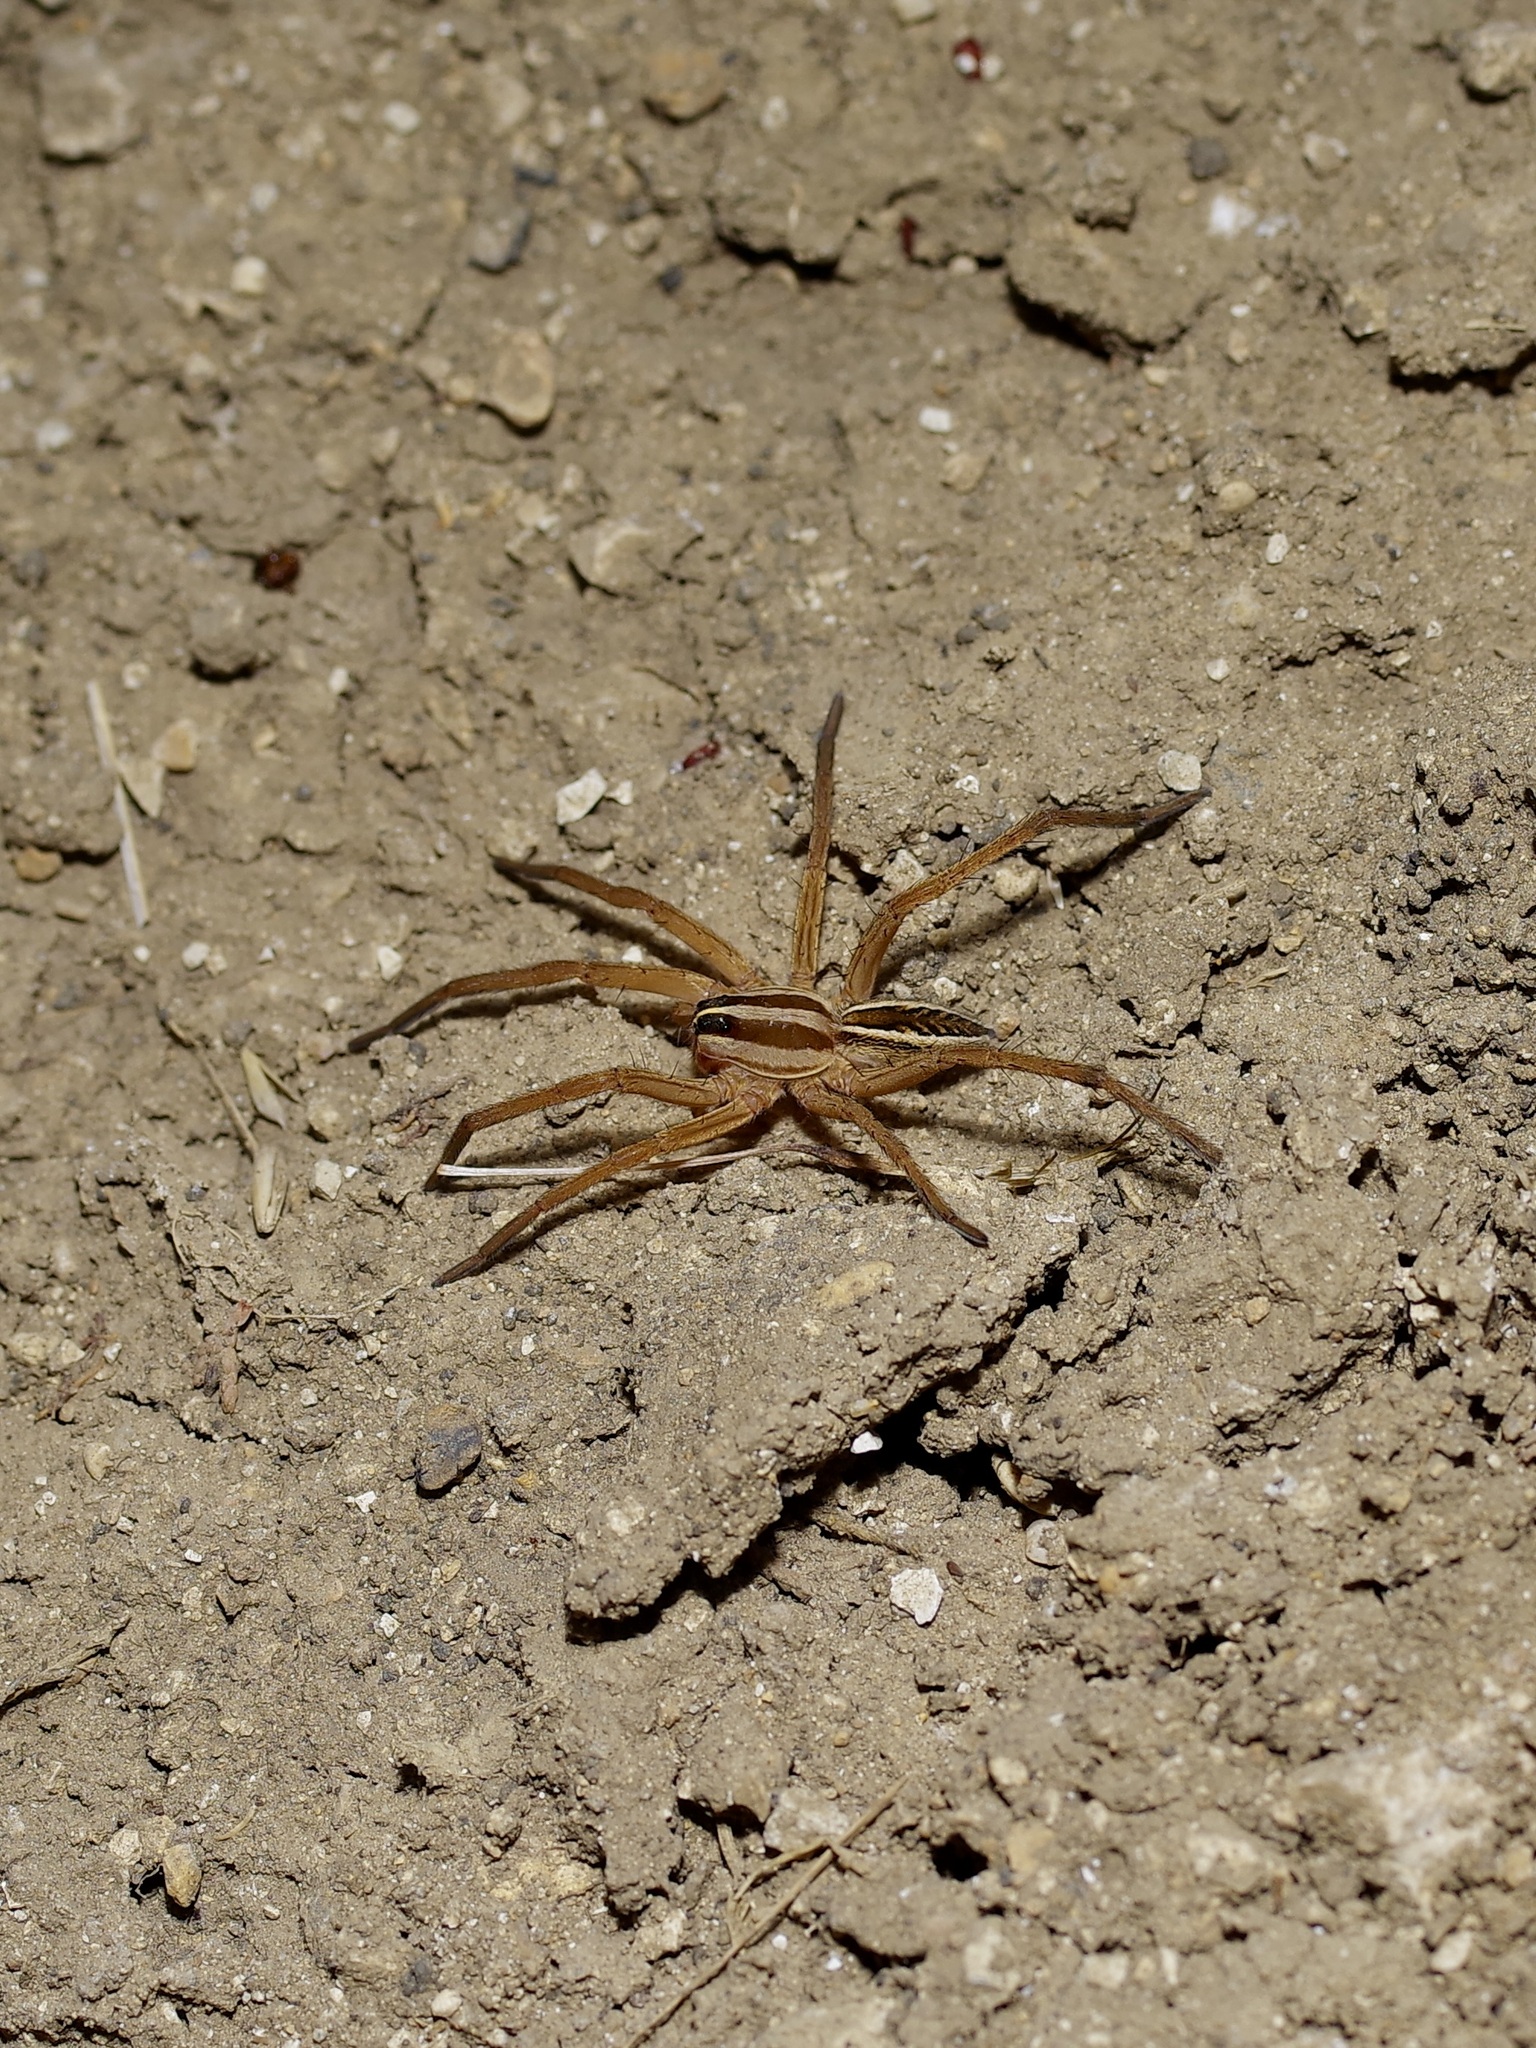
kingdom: Animalia
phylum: Arthropoda
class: Arachnida
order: Araneae
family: Lycosidae
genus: Rabidosa
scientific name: Rabidosa rabida
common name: Rabid wolf spider
